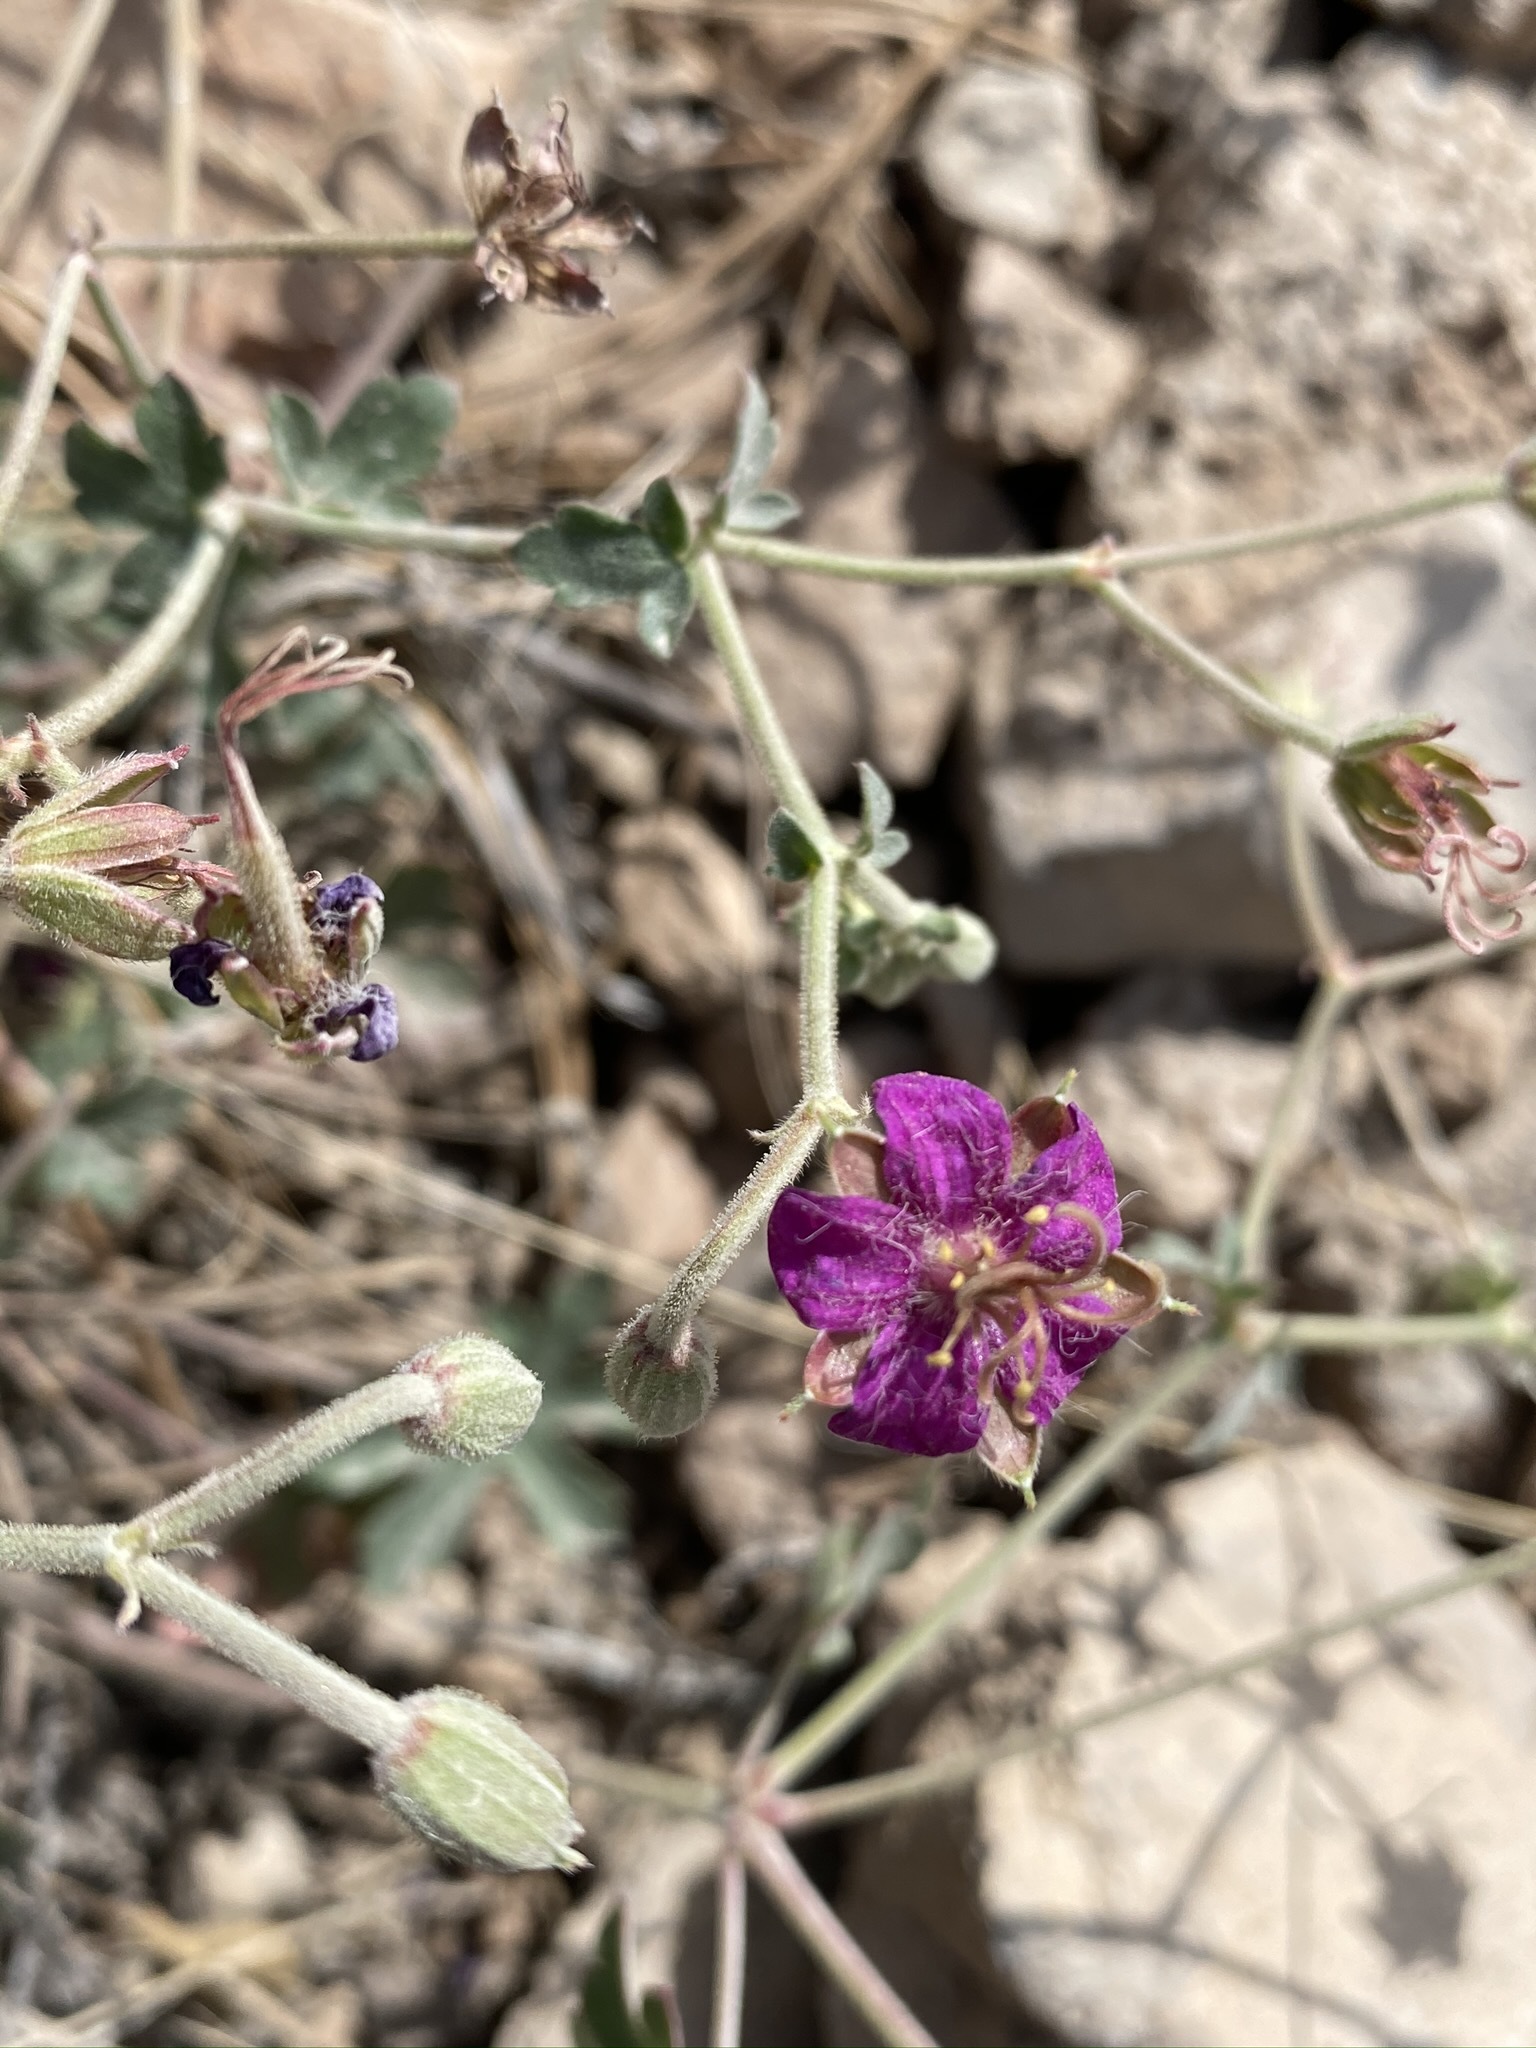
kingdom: Plantae
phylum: Tracheophyta
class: Magnoliopsida
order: Geraniales
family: Geraniaceae
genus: Geranium
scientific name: Geranium caespitosum
